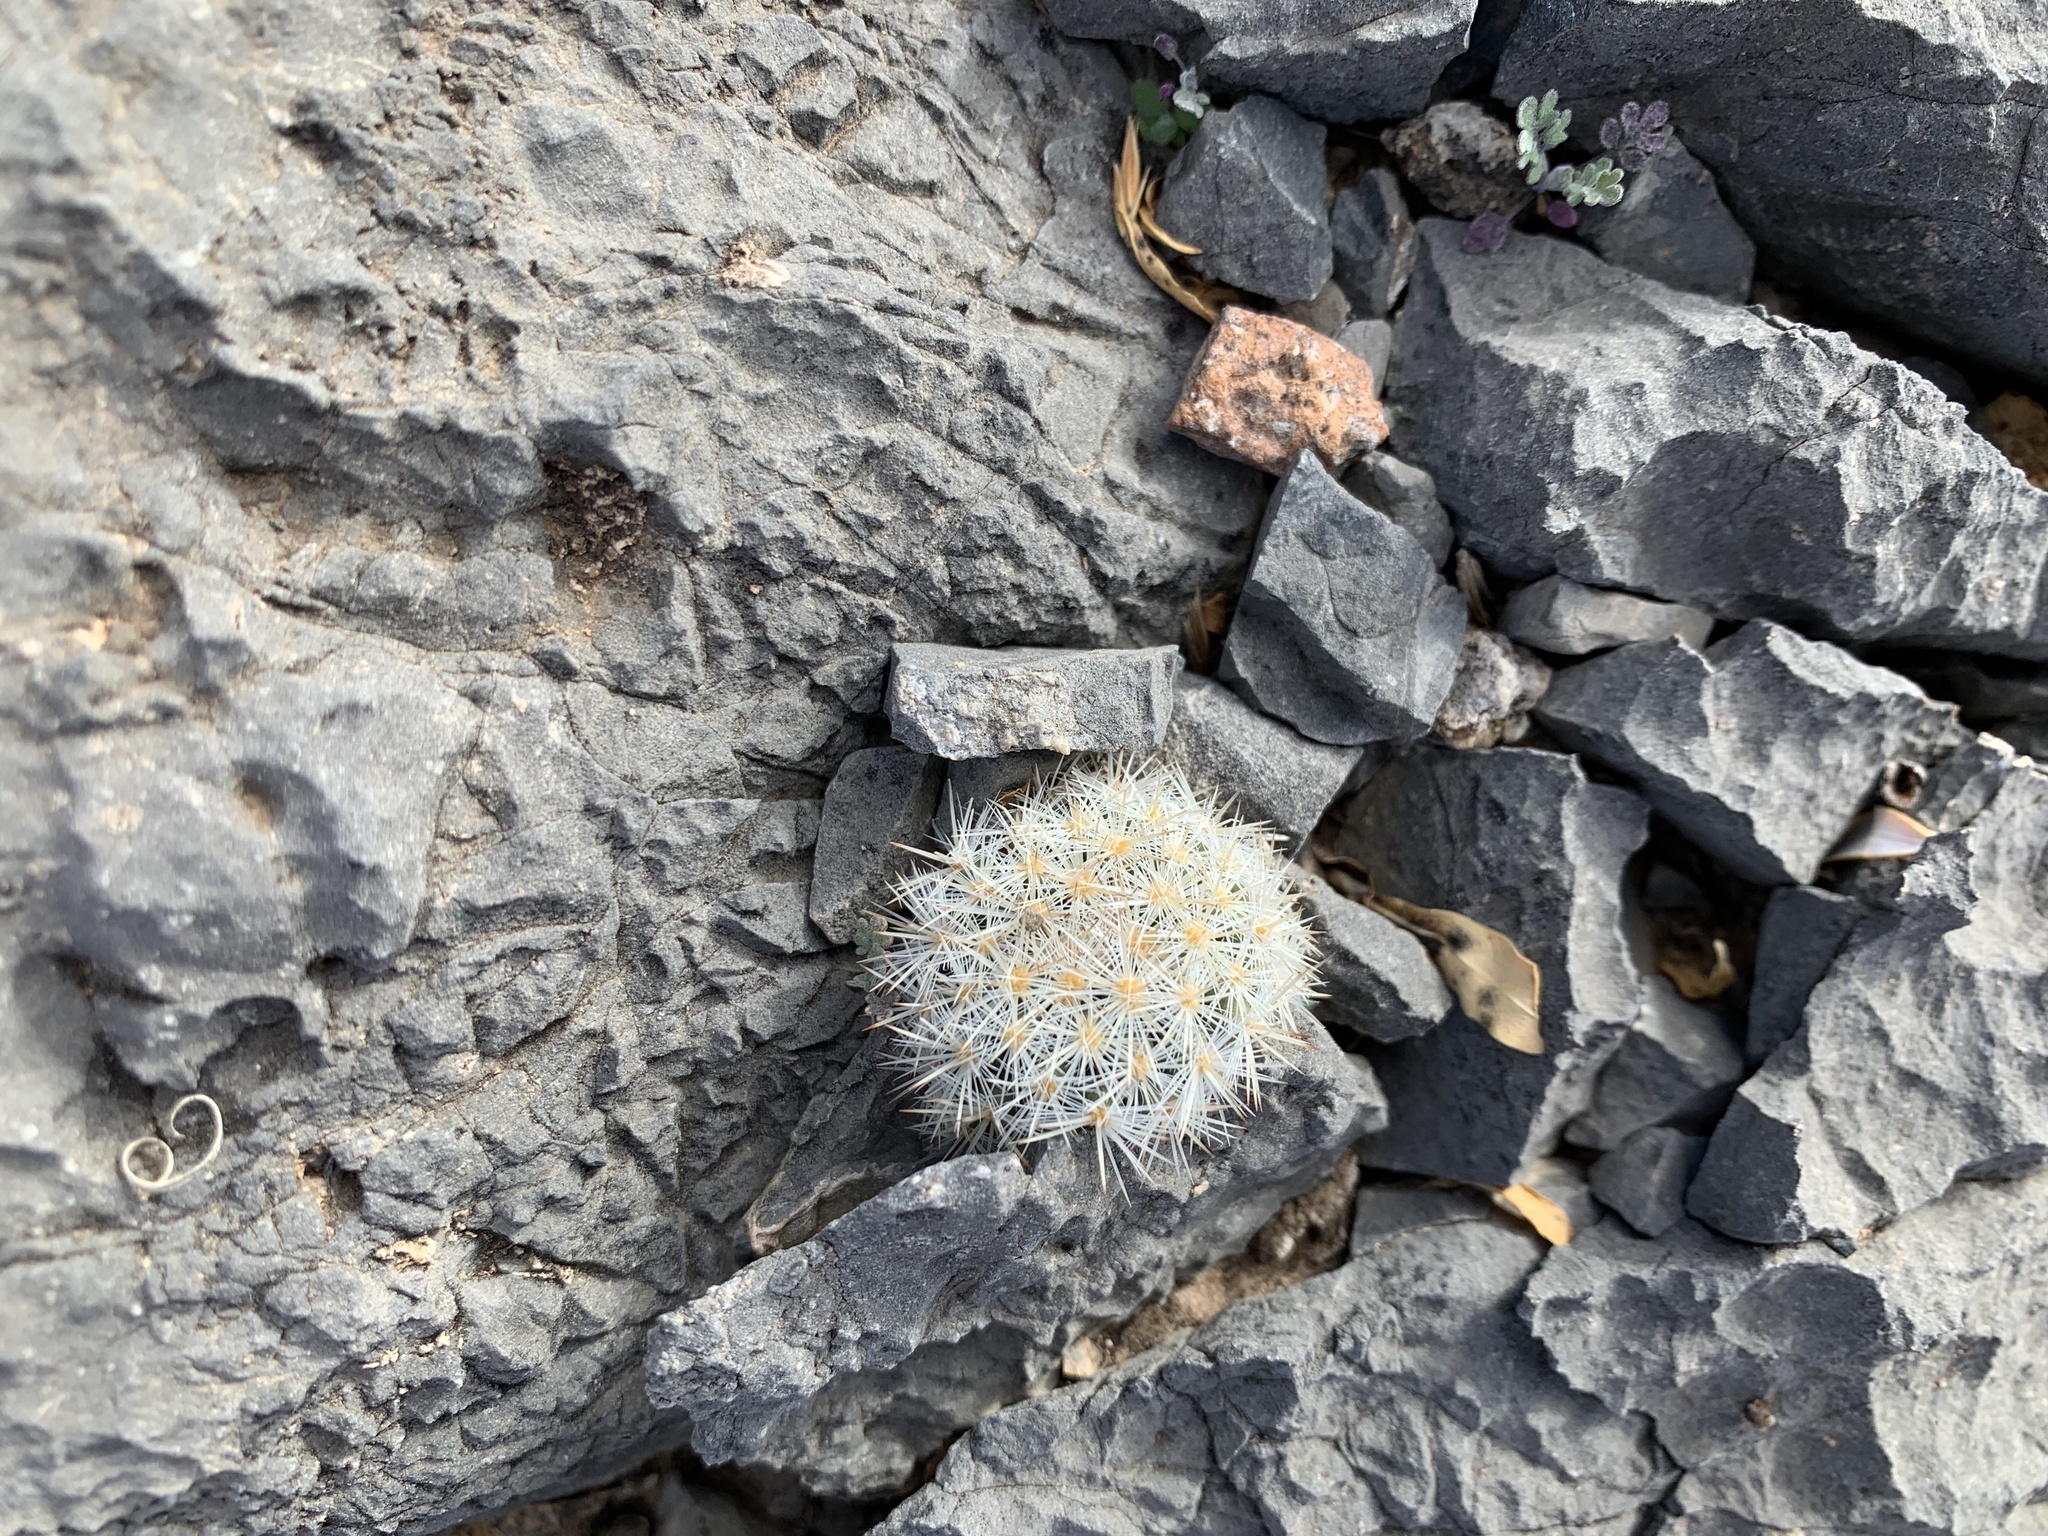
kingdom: Plantae
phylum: Tracheophyta
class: Magnoliopsida
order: Caryophyllales
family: Cactaceae
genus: Pelecyphora
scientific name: Pelecyphora sneedii
